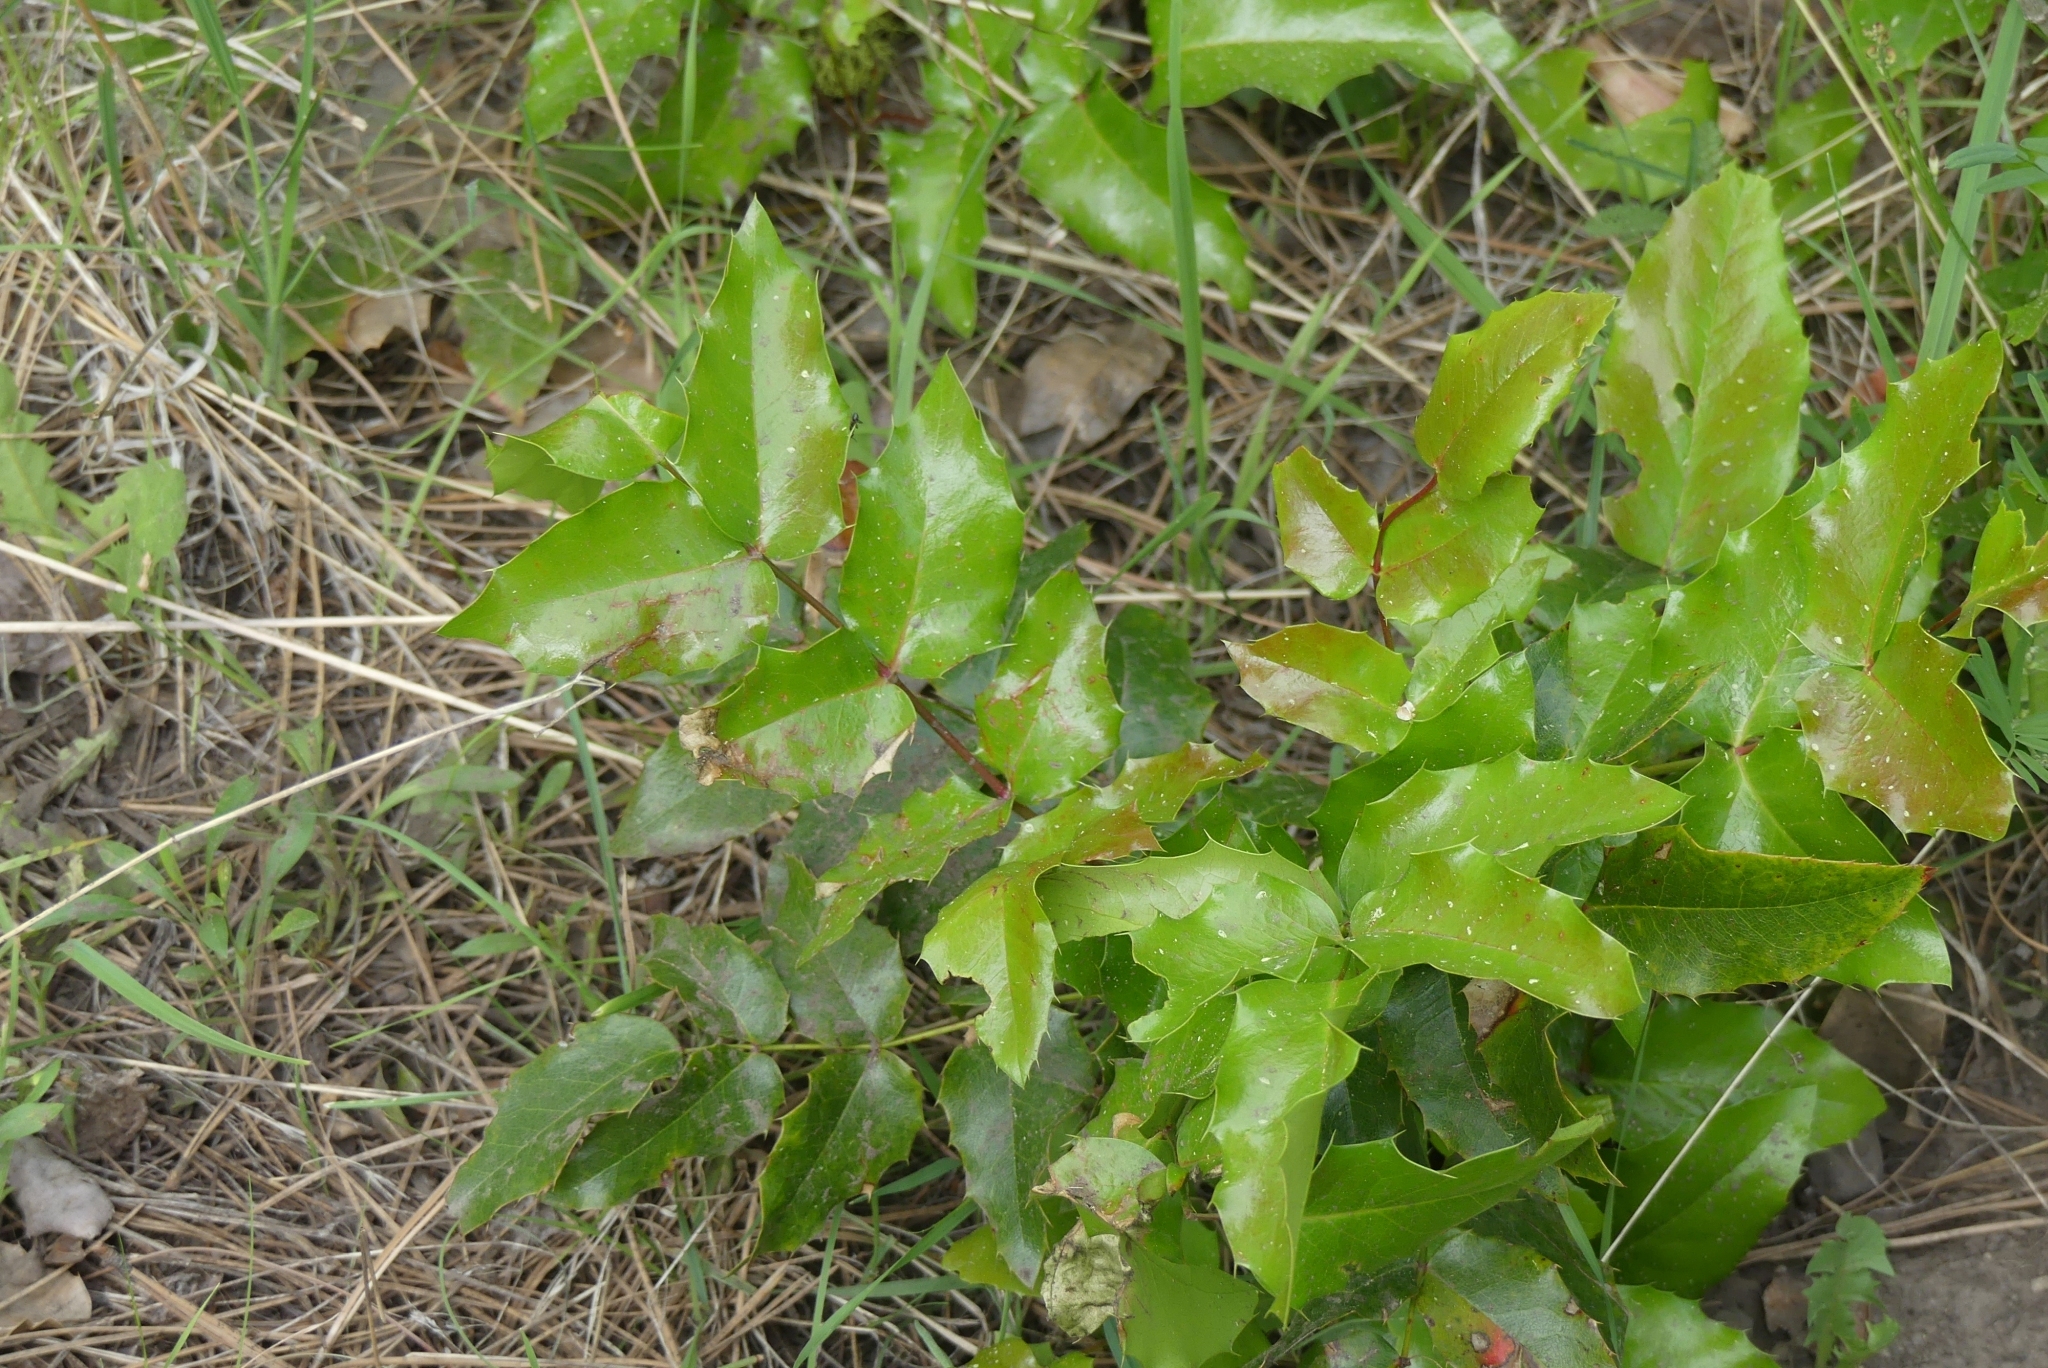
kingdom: Plantae
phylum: Tracheophyta
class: Magnoliopsida
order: Ranunculales
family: Berberidaceae
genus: Mahonia
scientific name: Mahonia aquifolium
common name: Oregon-grape
